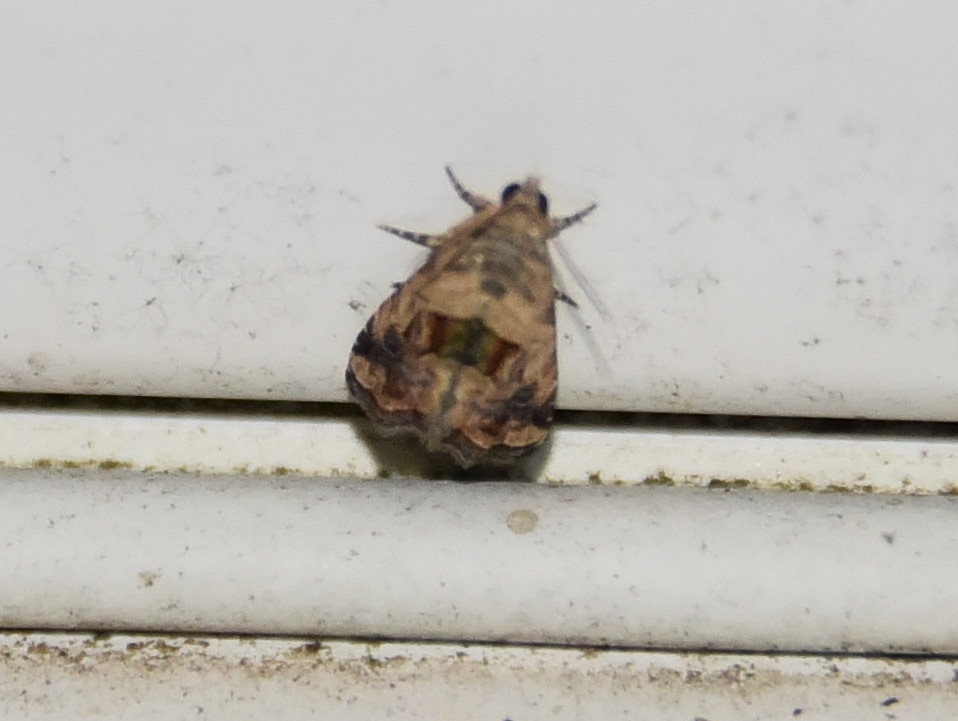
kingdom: Animalia
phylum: Arthropoda
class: Insecta
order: Lepidoptera
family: Noctuidae
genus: Tripudia
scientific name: Tripudia quadrifera
